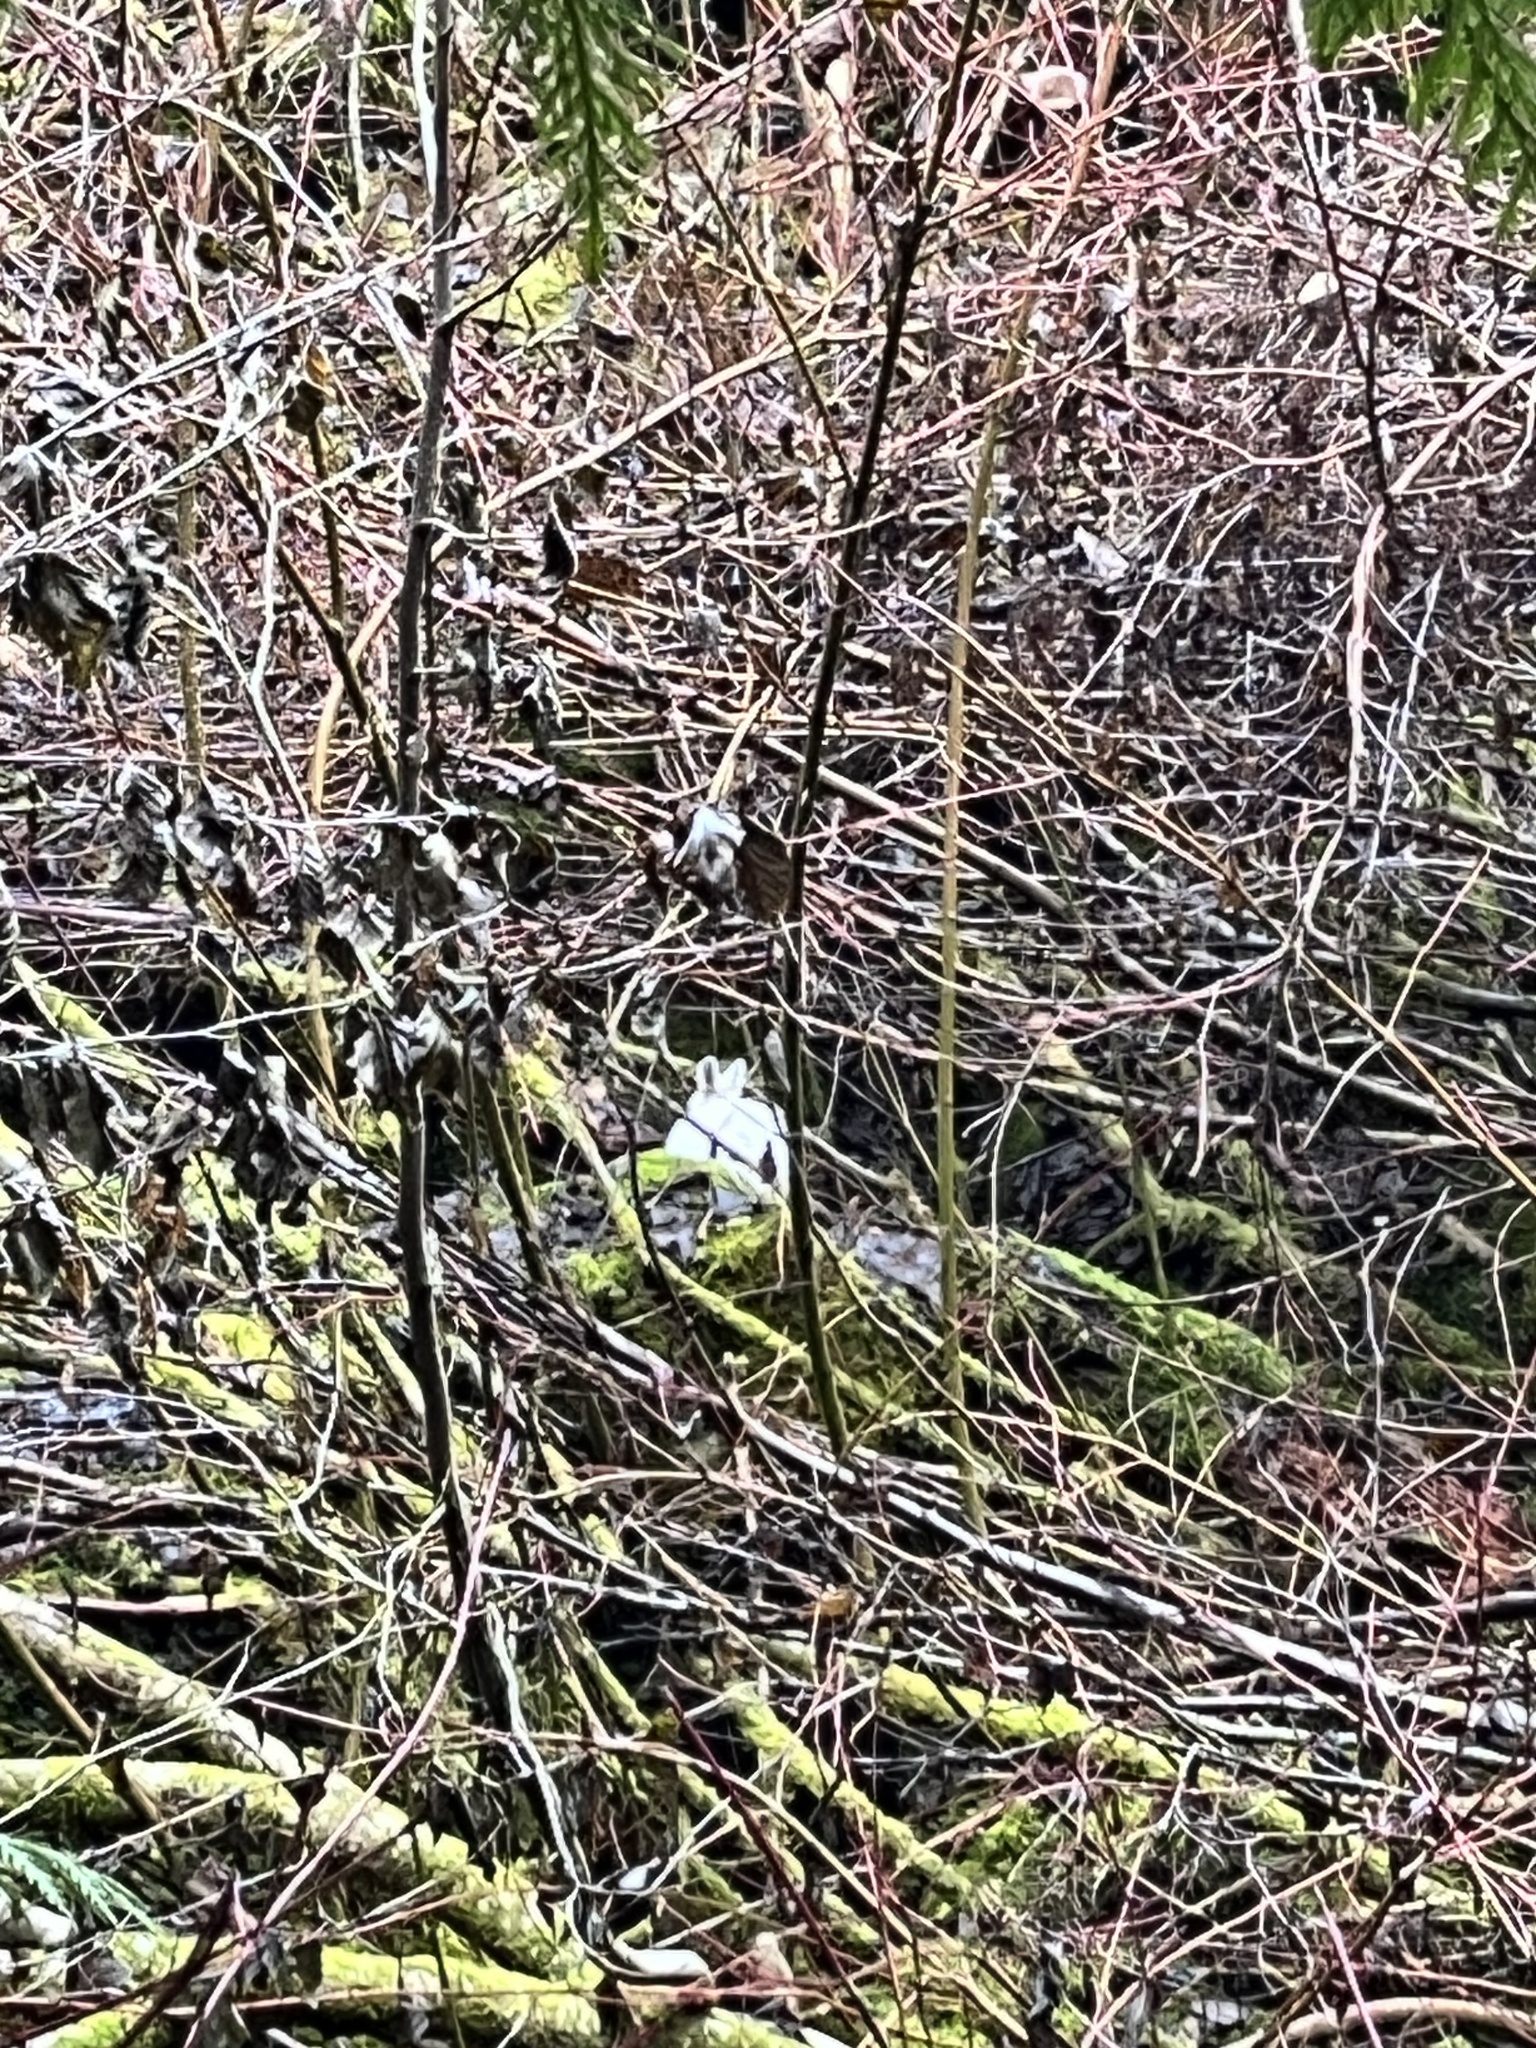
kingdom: Animalia
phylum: Chordata
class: Mammalia
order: Lagomorpha
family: Leporidae
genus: Lepus
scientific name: Lepus americanus
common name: Snowshoe hare
